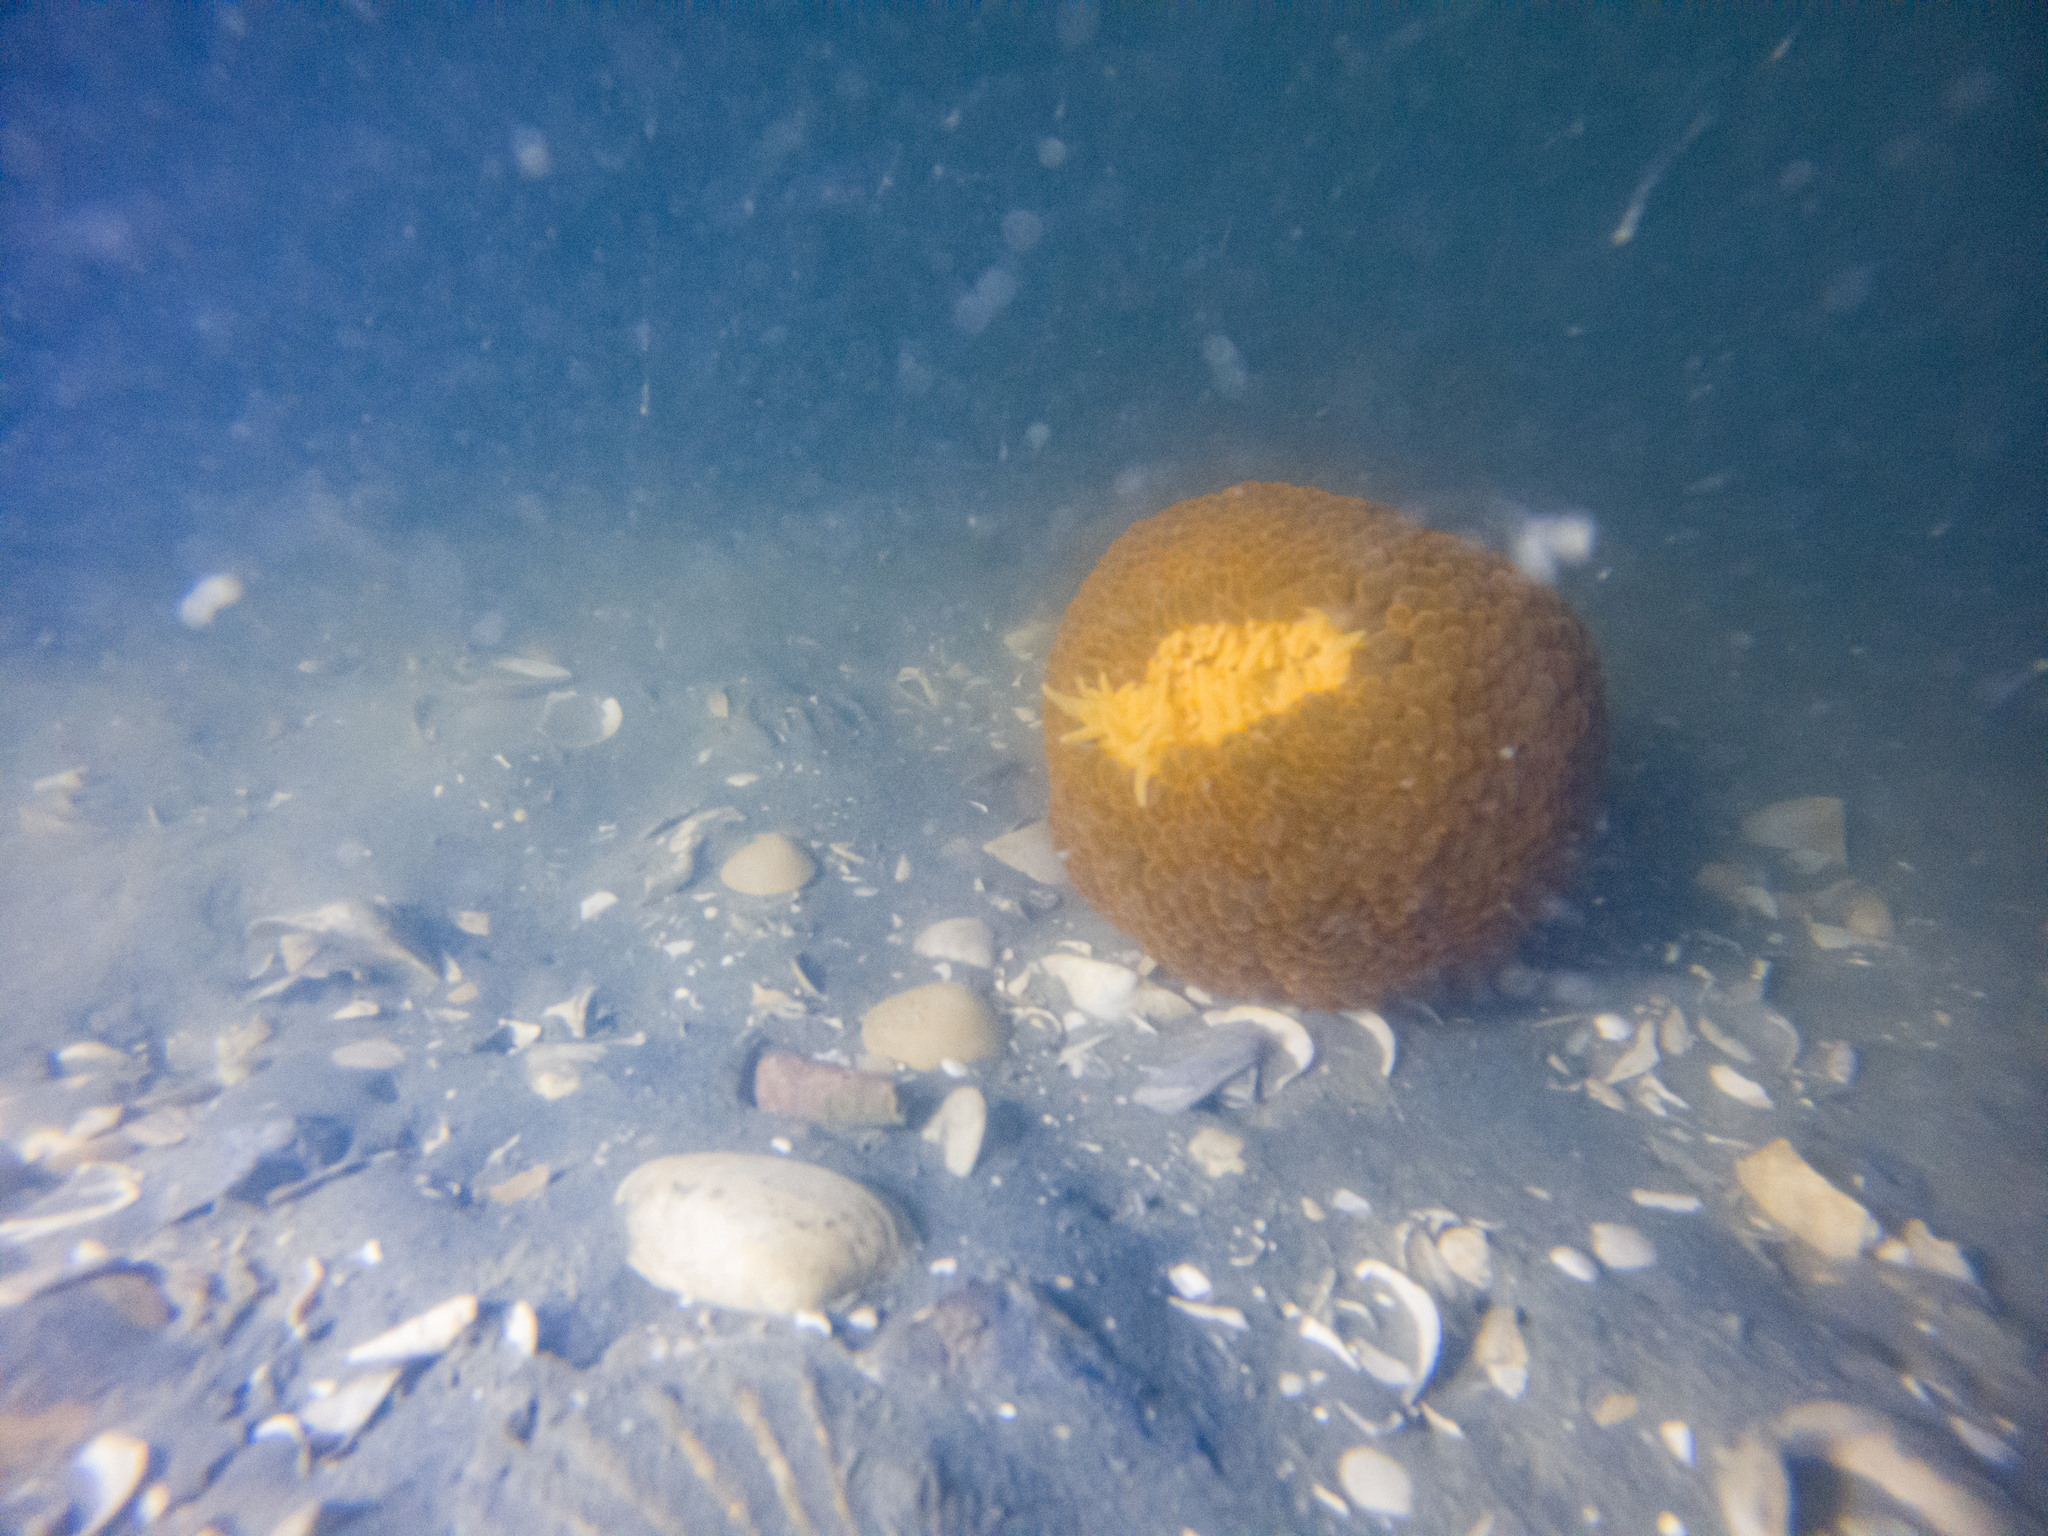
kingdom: Animalia
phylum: Cnidaria
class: Anthozoa
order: Actiniaria
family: Actiniidae
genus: Phlyctenactis
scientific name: Phlyctenactis tuberculosa
